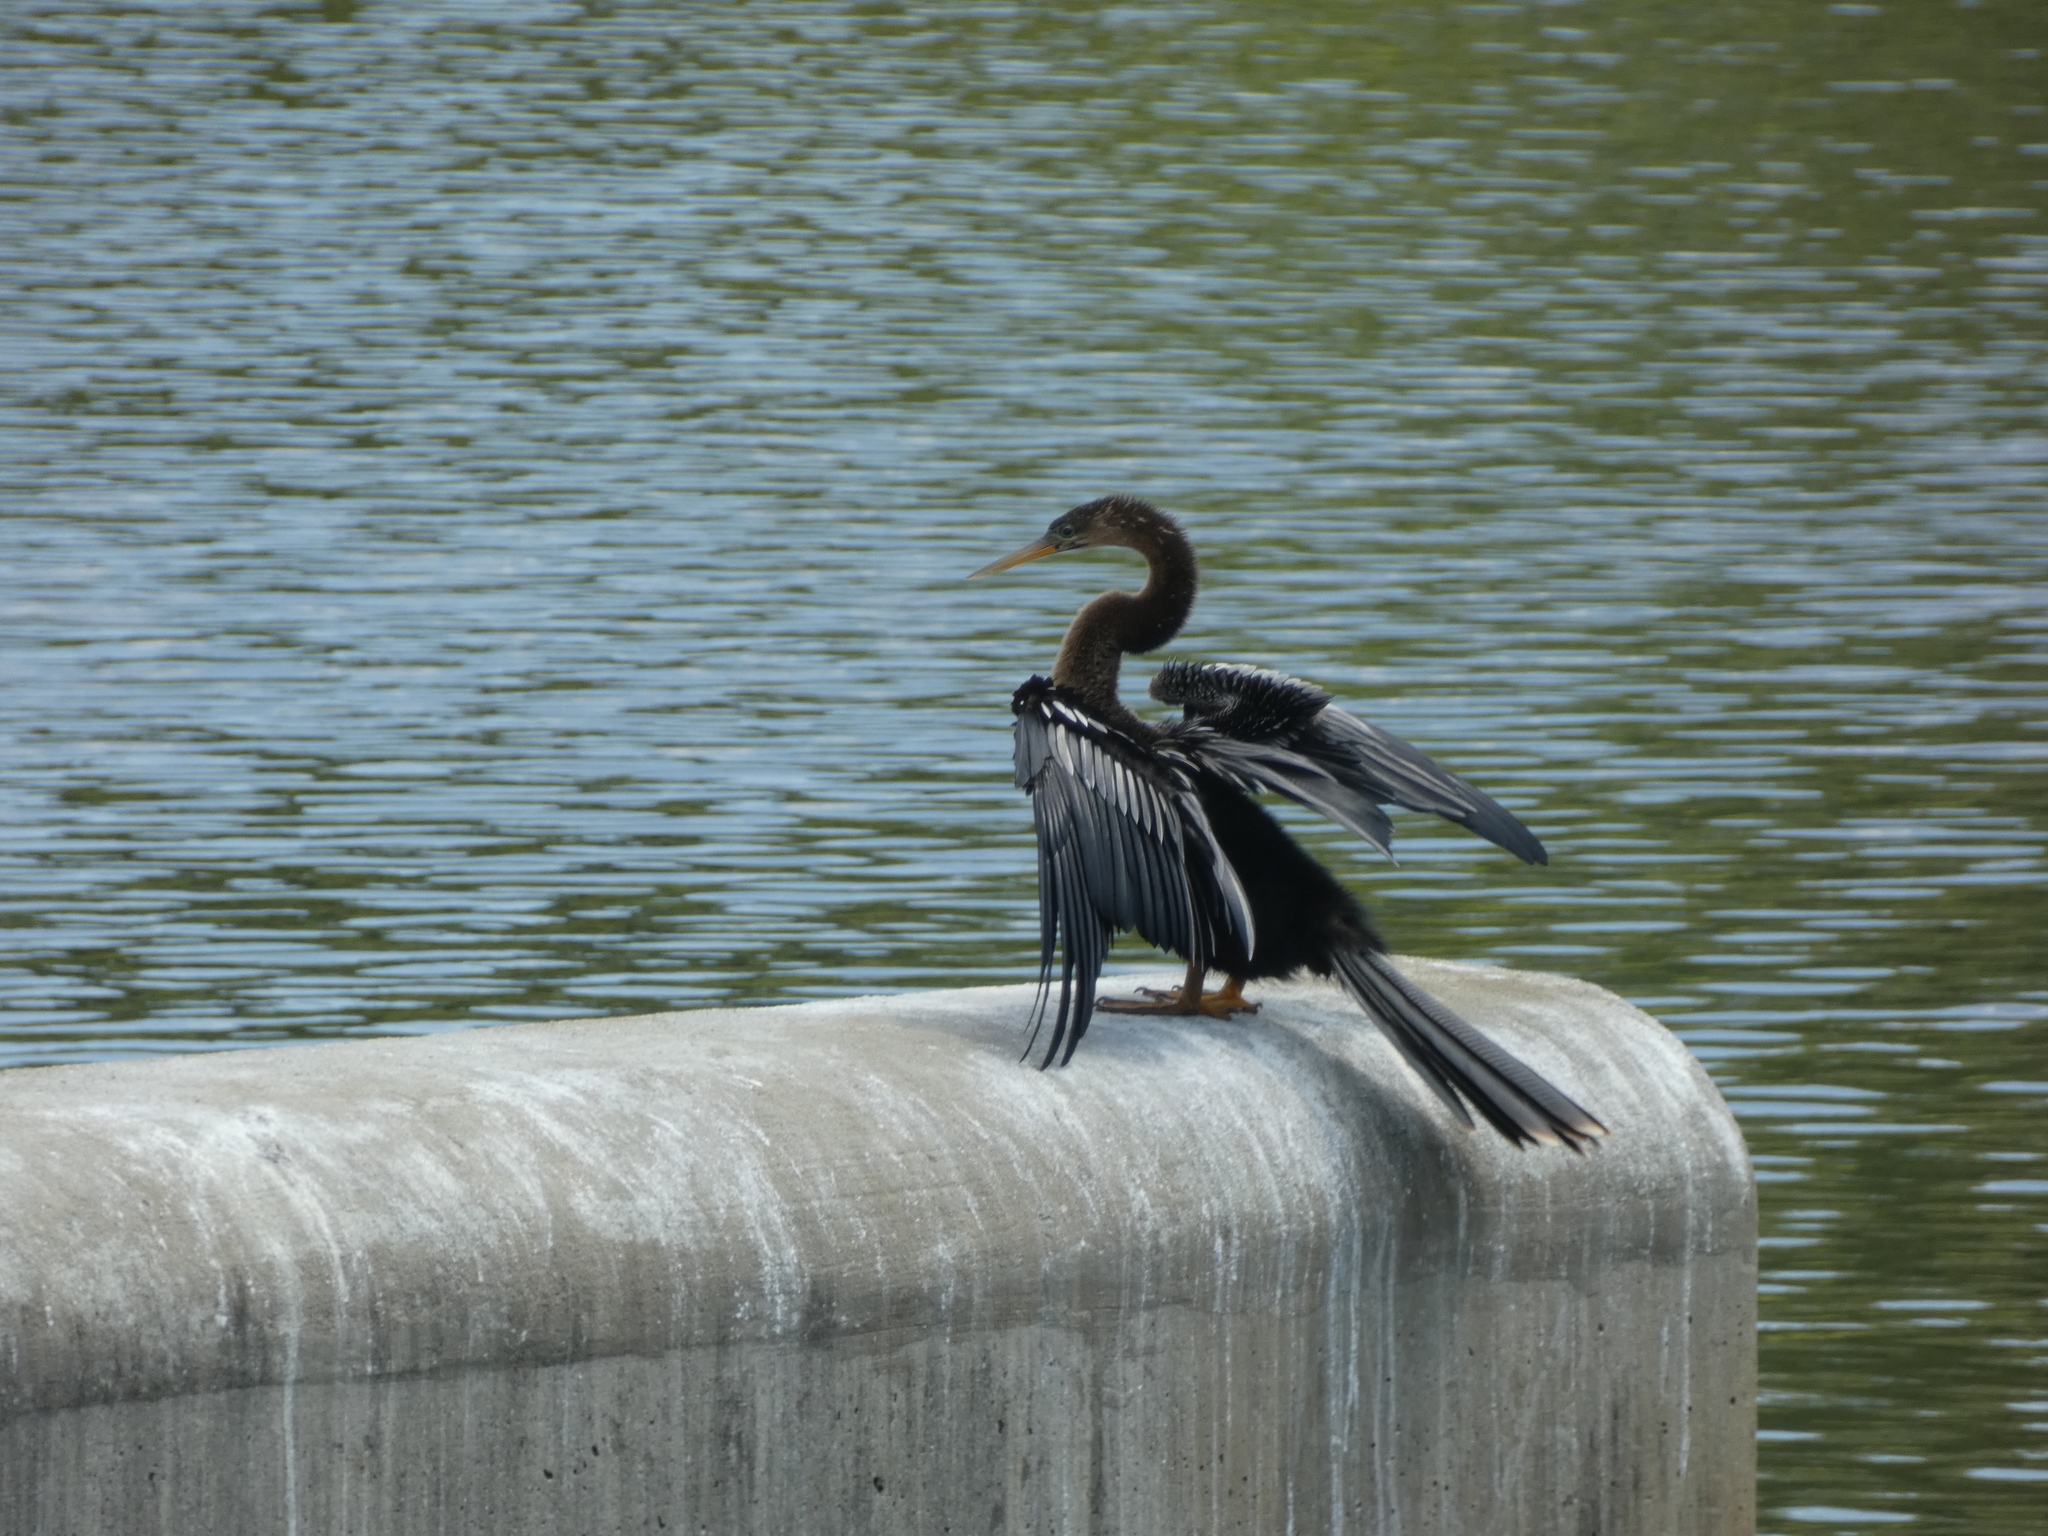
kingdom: Animalia
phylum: Chordata
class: Aves
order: Suliformes
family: Anhingidae
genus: Anhinga
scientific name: Anhinga anhinga
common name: Anhinga
